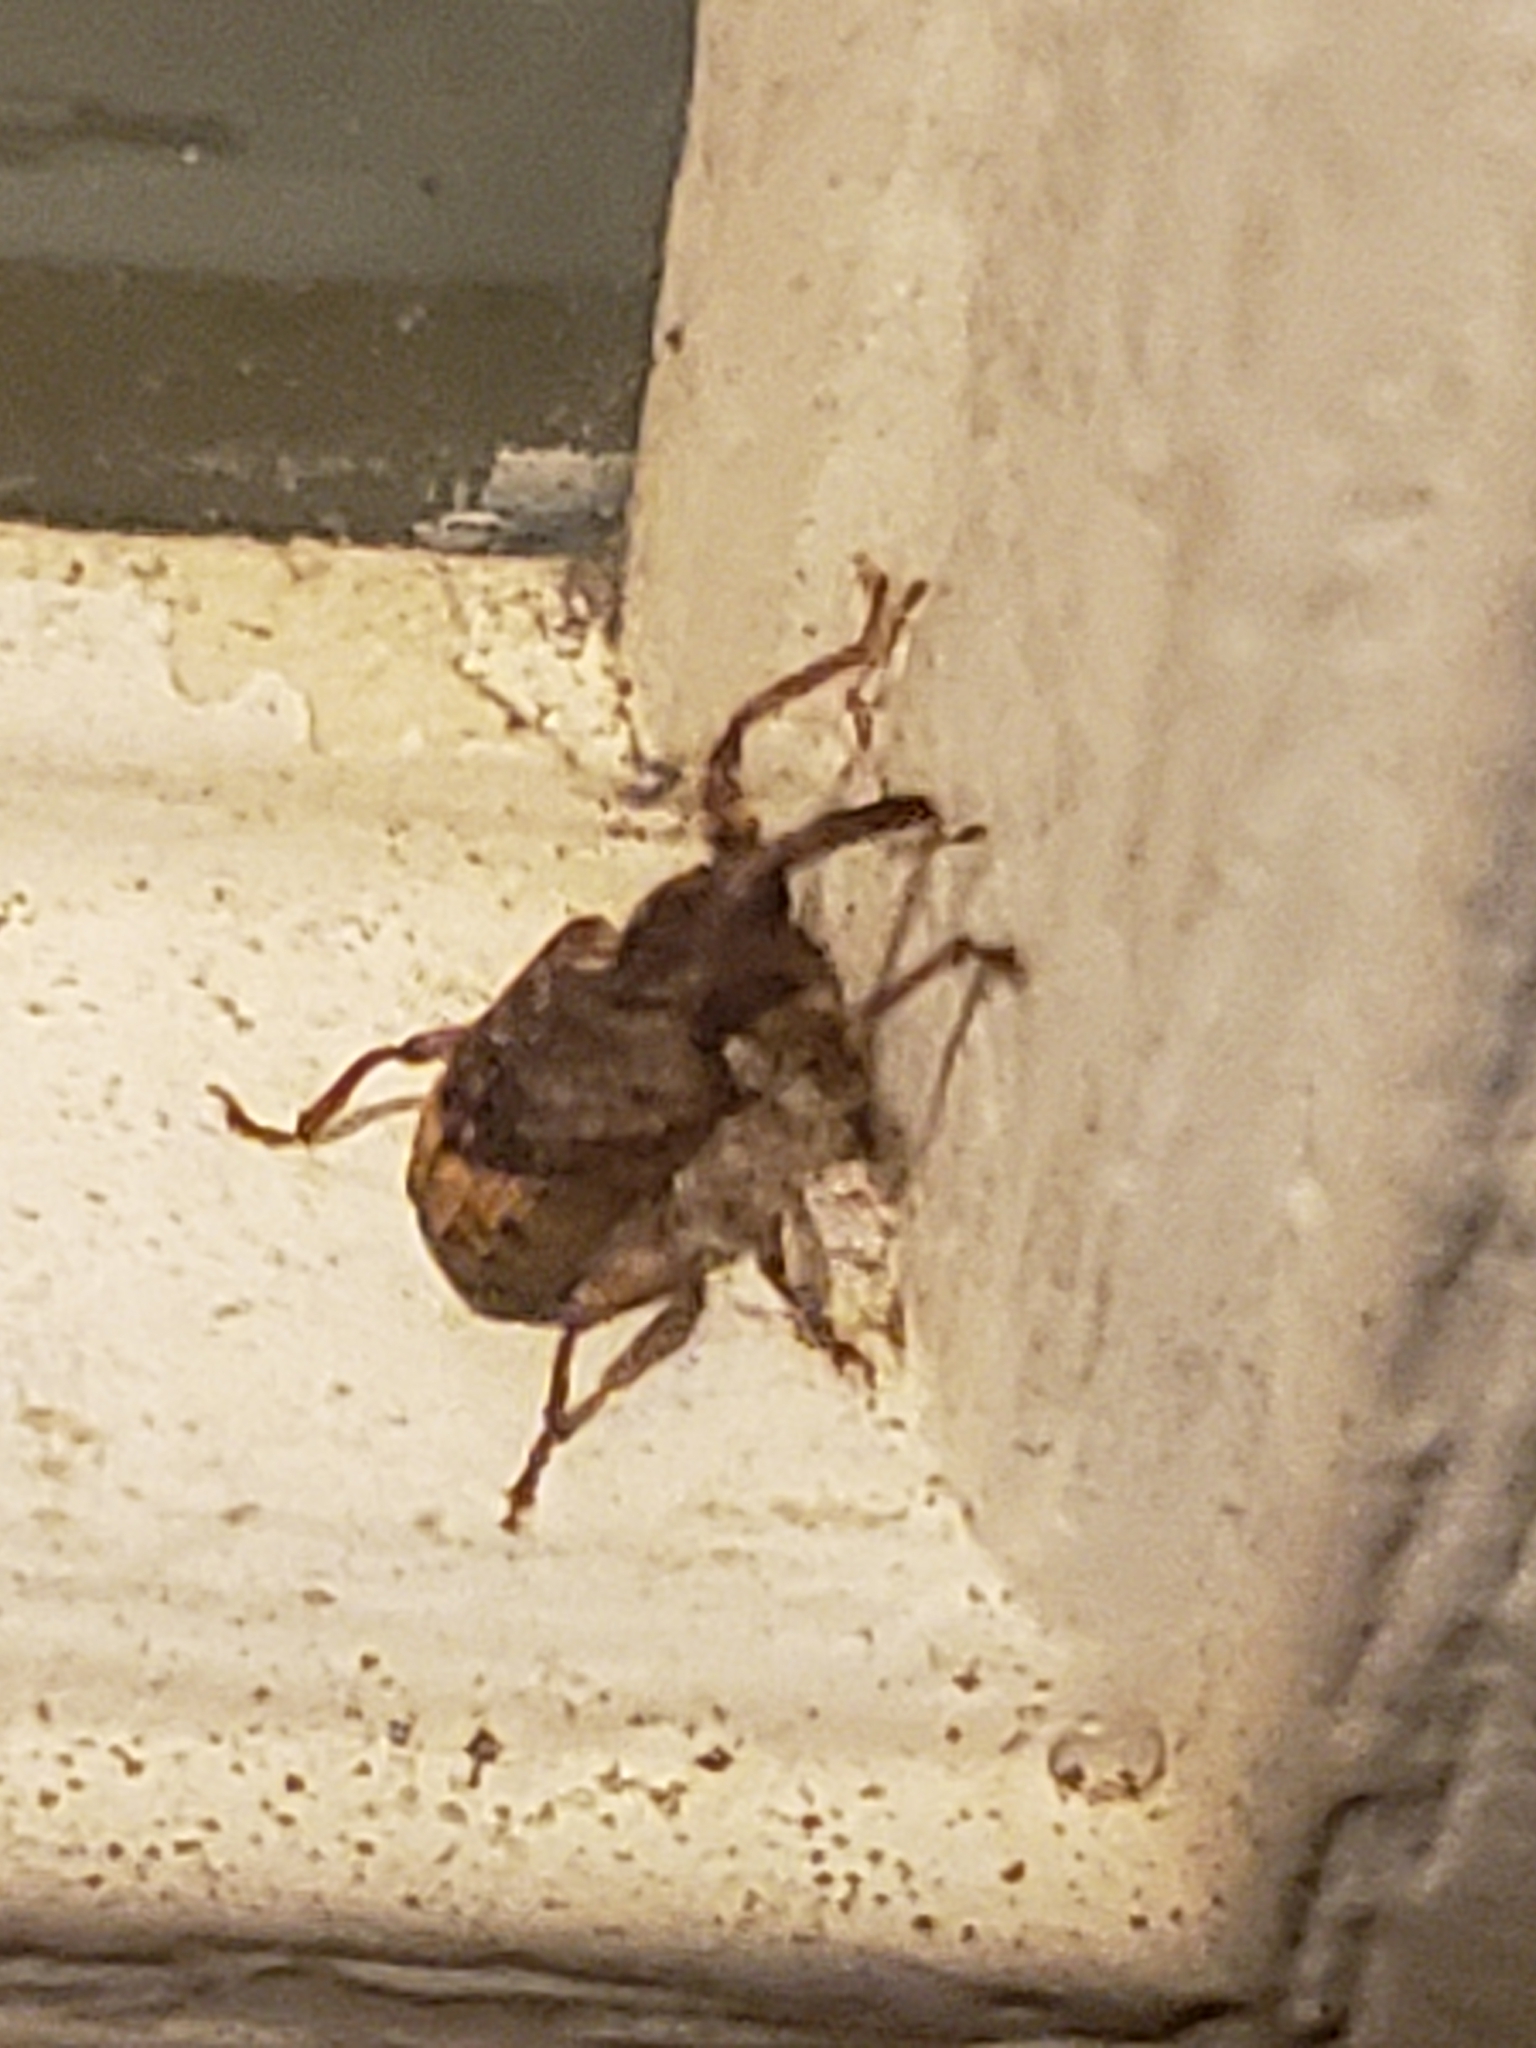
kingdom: Animalia
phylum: Arthropoda
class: Insecta
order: Coleoptera
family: Curculionidae
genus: Conotrachelus
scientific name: Conotrachelus elegans
